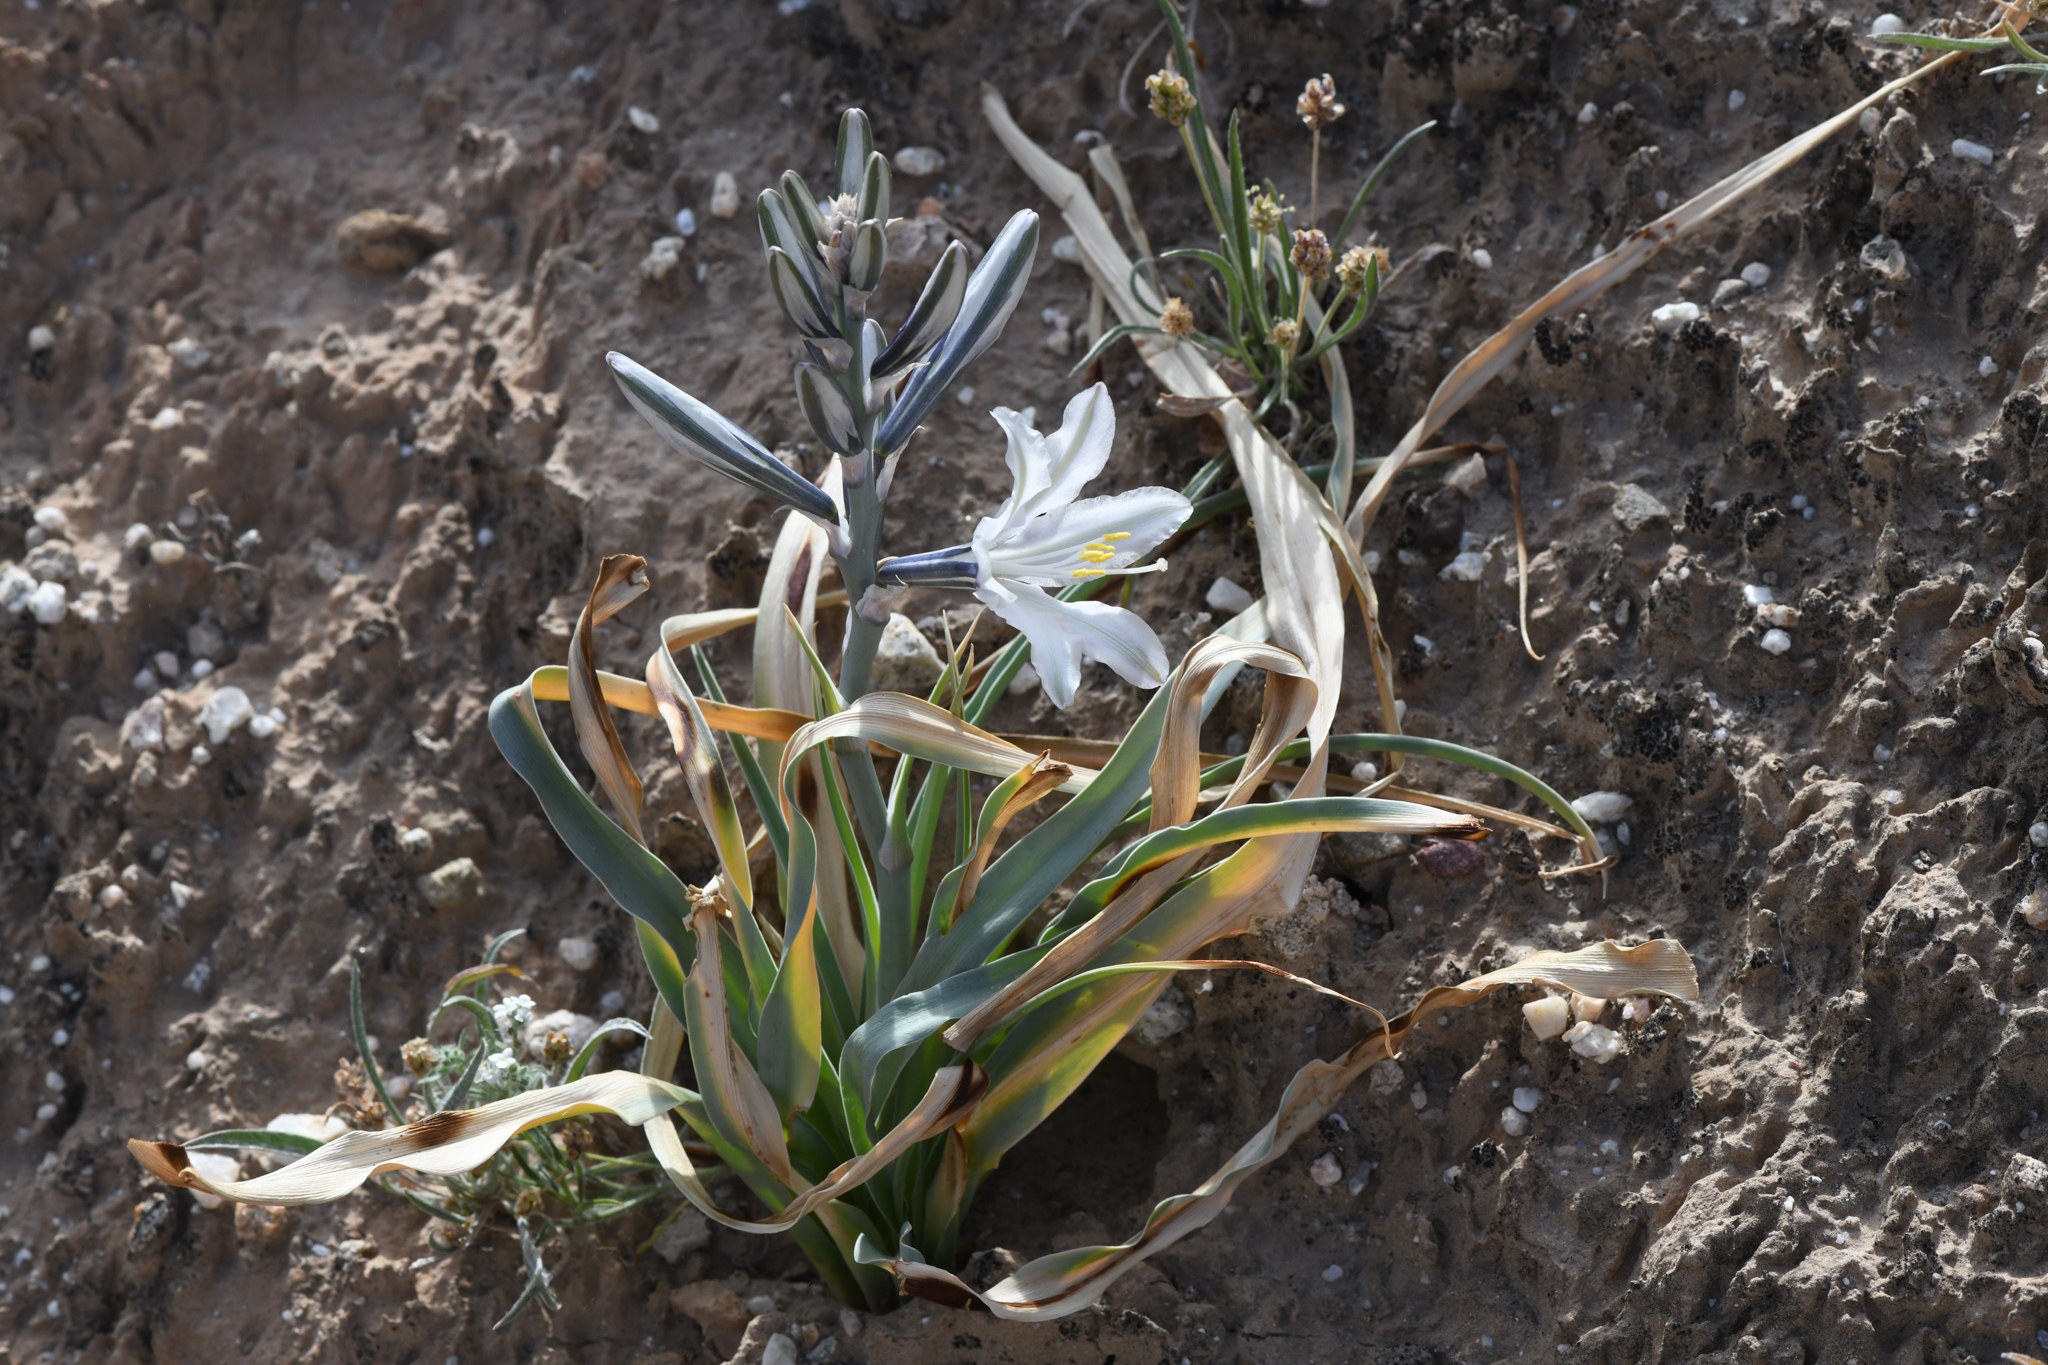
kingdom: Plantae
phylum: Tracheophyta
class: Liliopsida
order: Asparagales
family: Asparagaceae
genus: Hesperocallis
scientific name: Hesperocallis undulata
